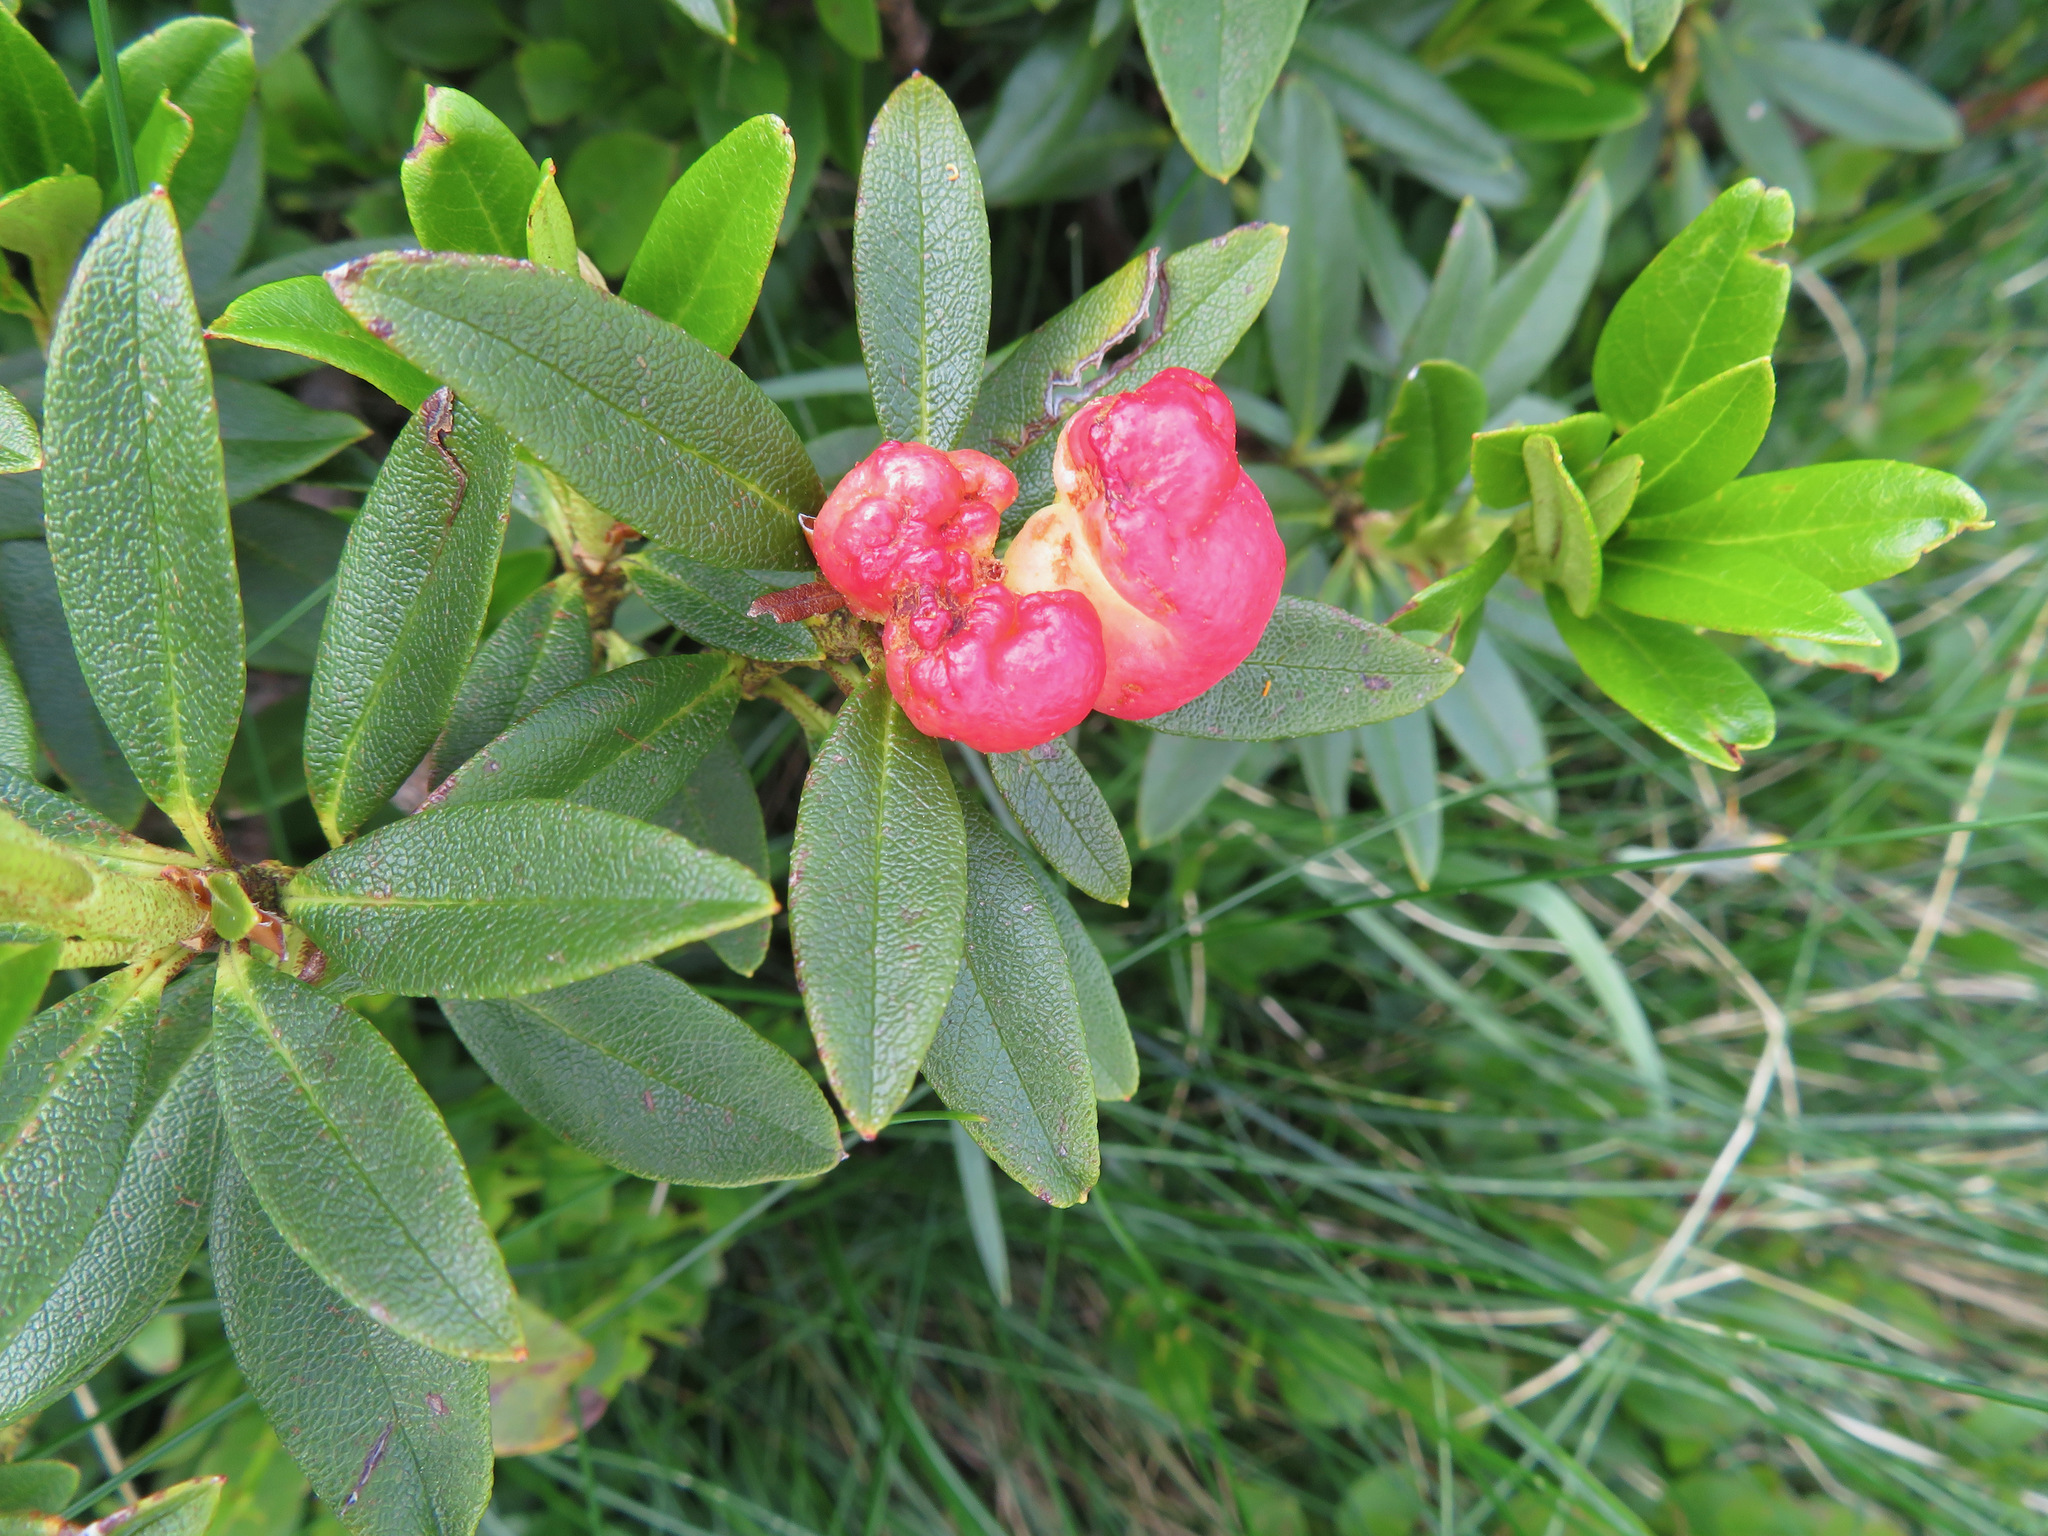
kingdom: Fungi
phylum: Basidiomycota
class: Exobasidiomycetes
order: Exobasidiales
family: Exobasidiaceae
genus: Exobasidium
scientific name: Exobasidium rhododendri
